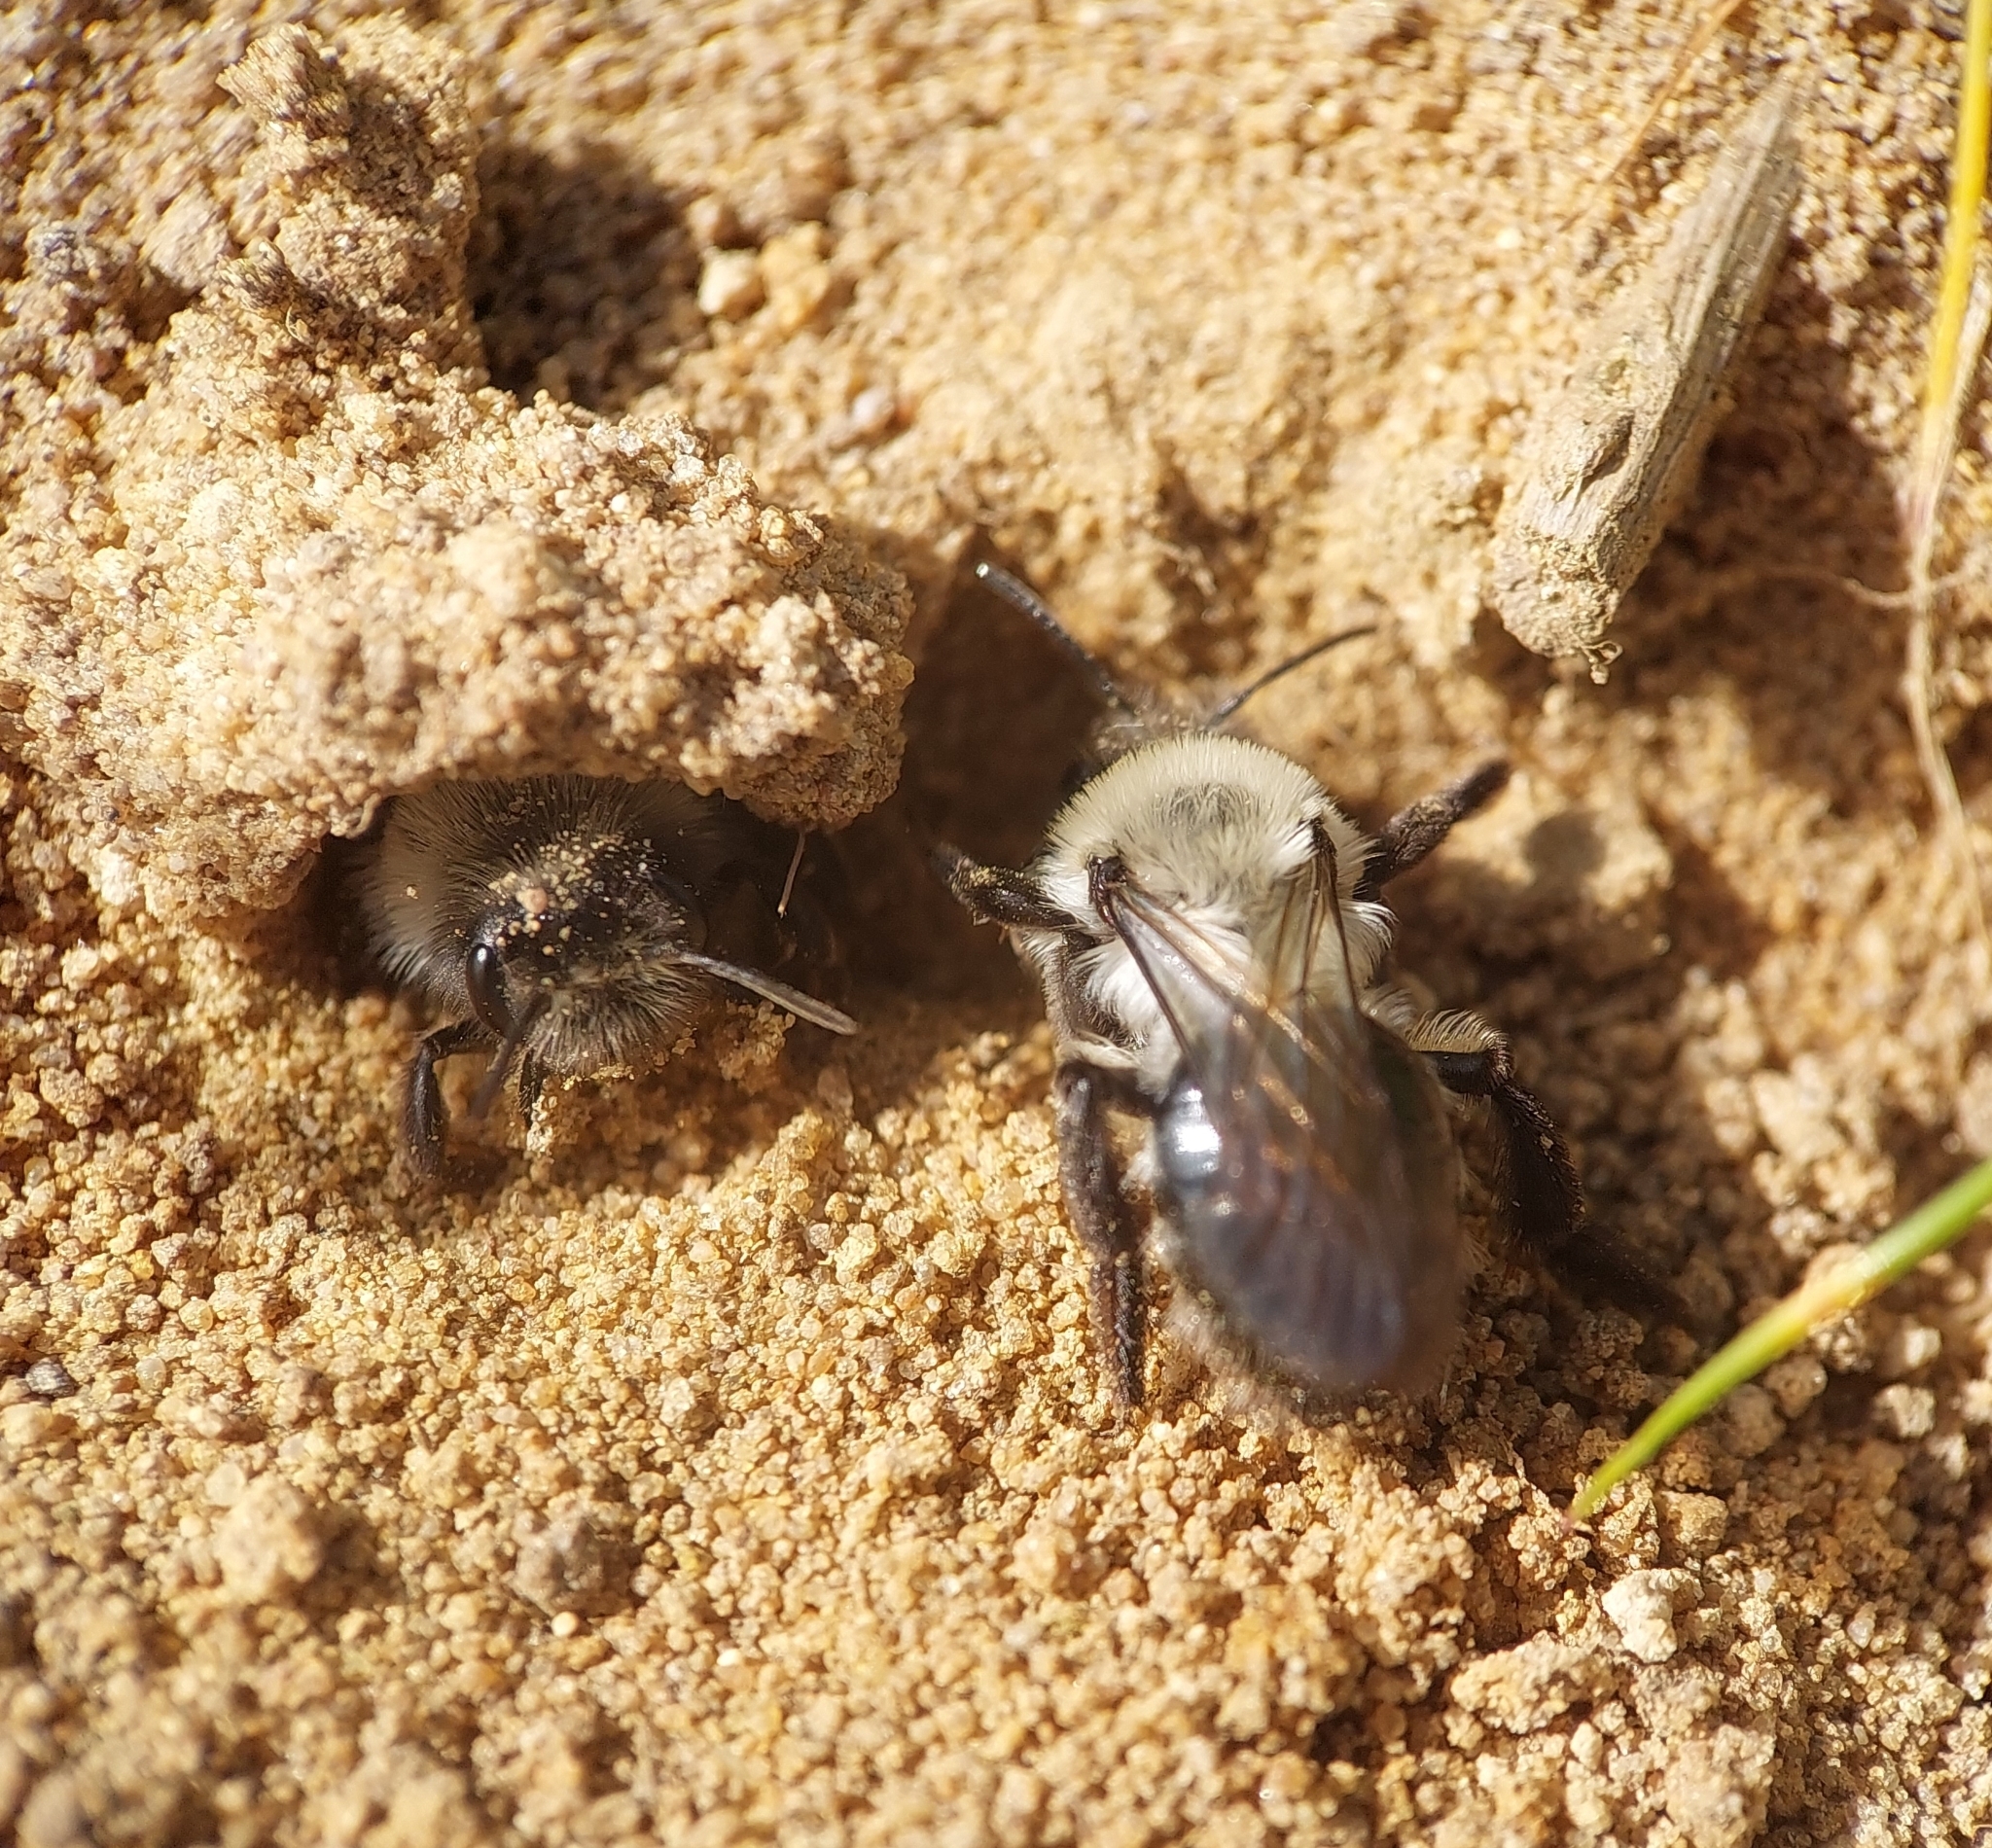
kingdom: Animalia
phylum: Arthropoda
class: Insecta
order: Hymenoptera
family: Andrenidae
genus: Andrena
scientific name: Andrena vaga
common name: Grey-backed mining bee
